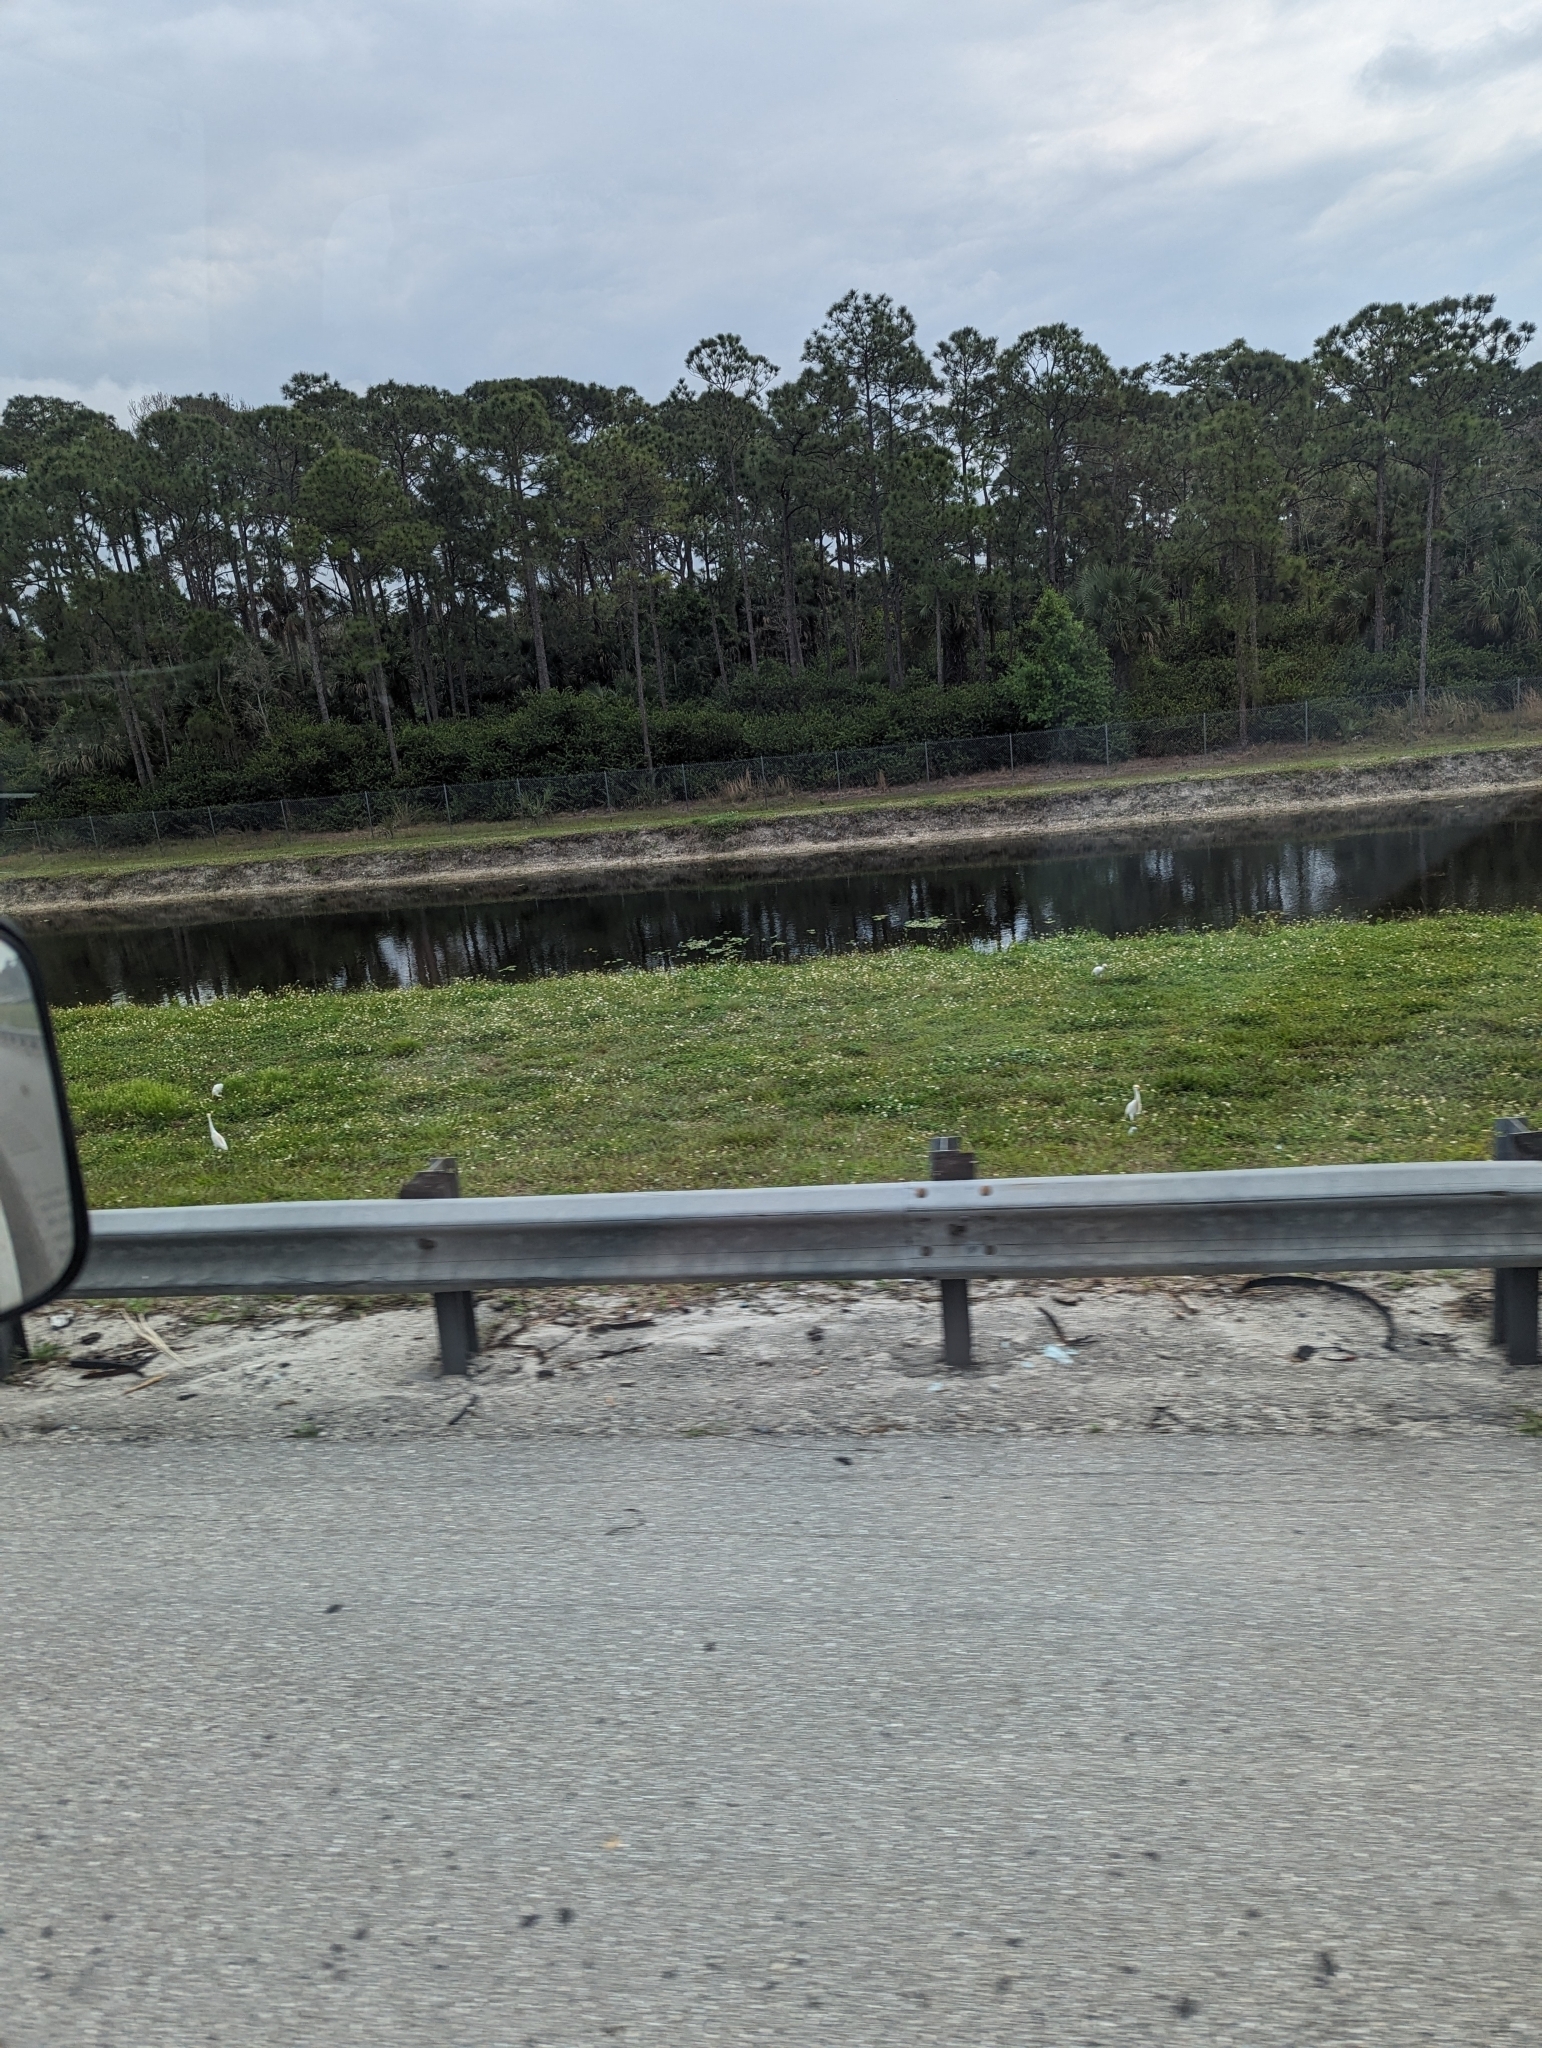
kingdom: Animalia
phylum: Chordata
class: Aves
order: Pelecaniformes
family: Ardeidae
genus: Bubulcus
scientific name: Bubulcus ibis
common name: Cattle egret
